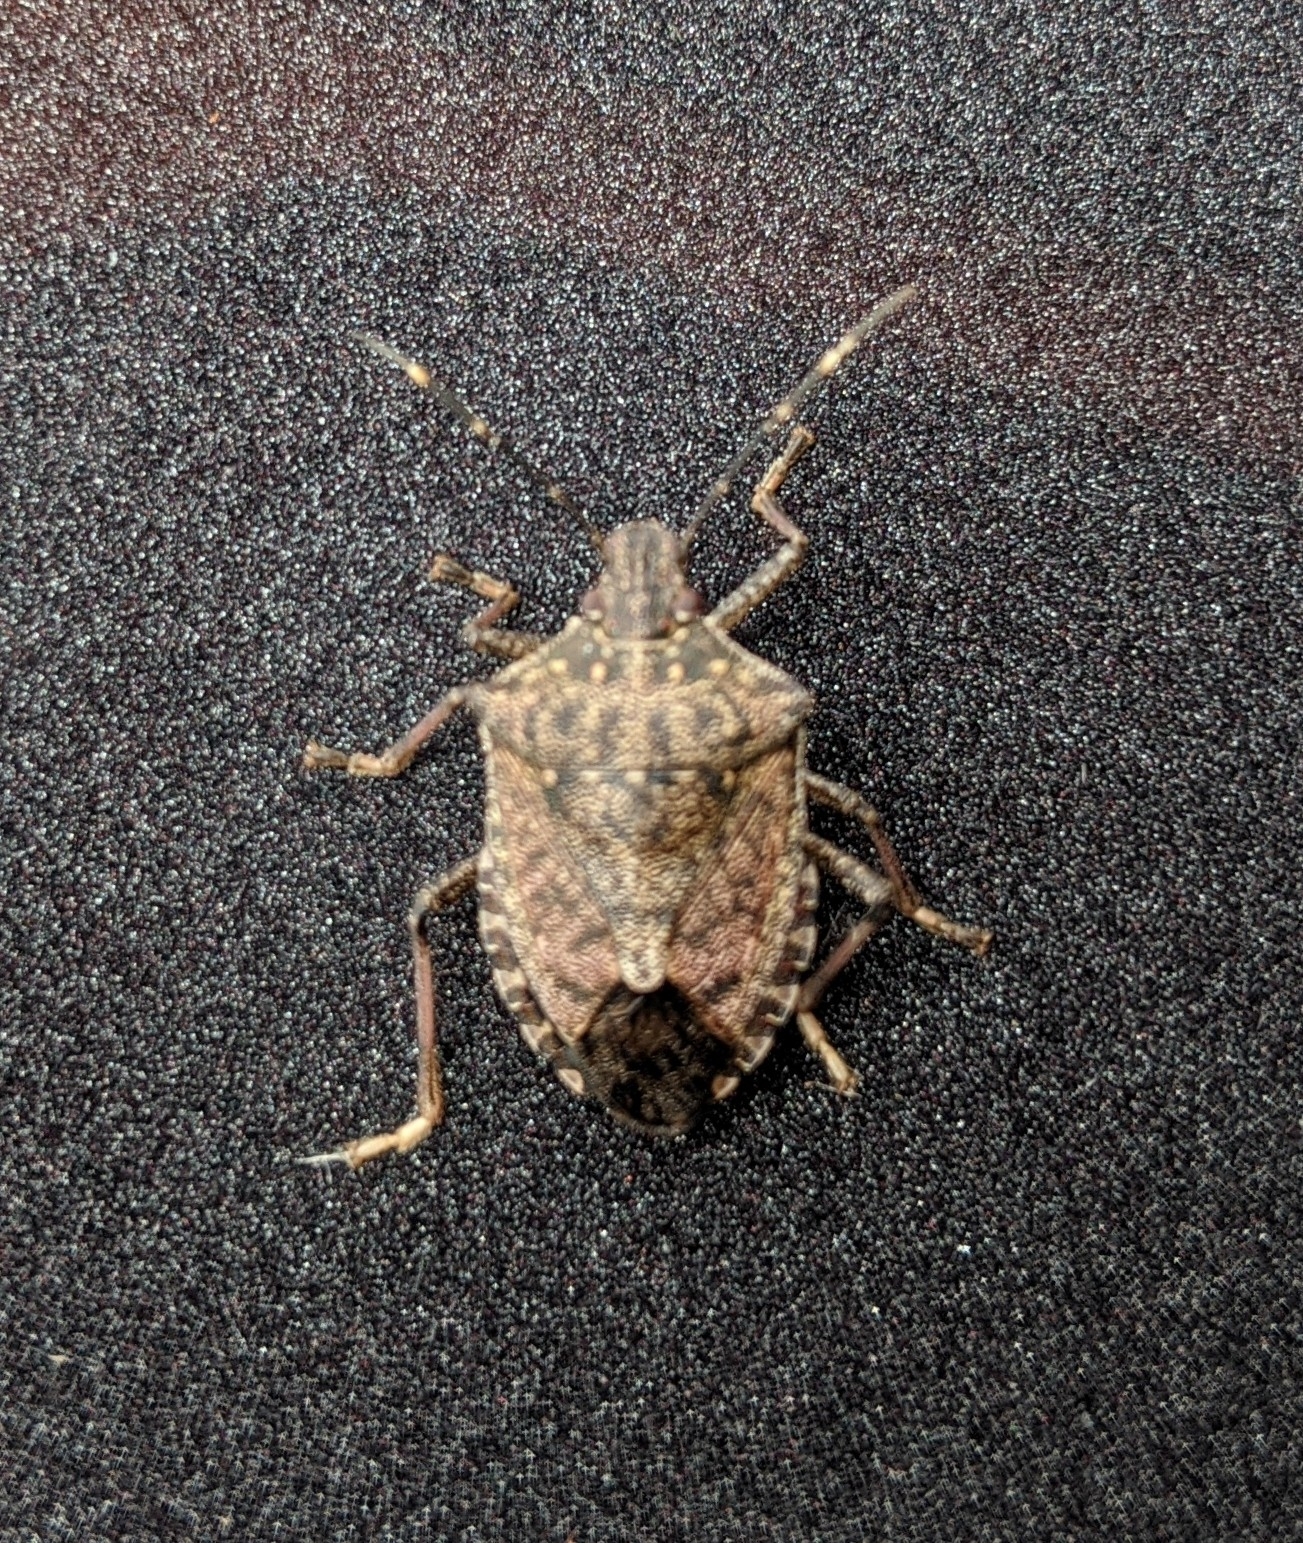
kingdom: Animalia
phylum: Arthropoda
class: Insecta
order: Hemiptera
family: Pentatomidae
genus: Halyomorpha
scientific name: Halyomorpha halys
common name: Brown marmorated stink bug
